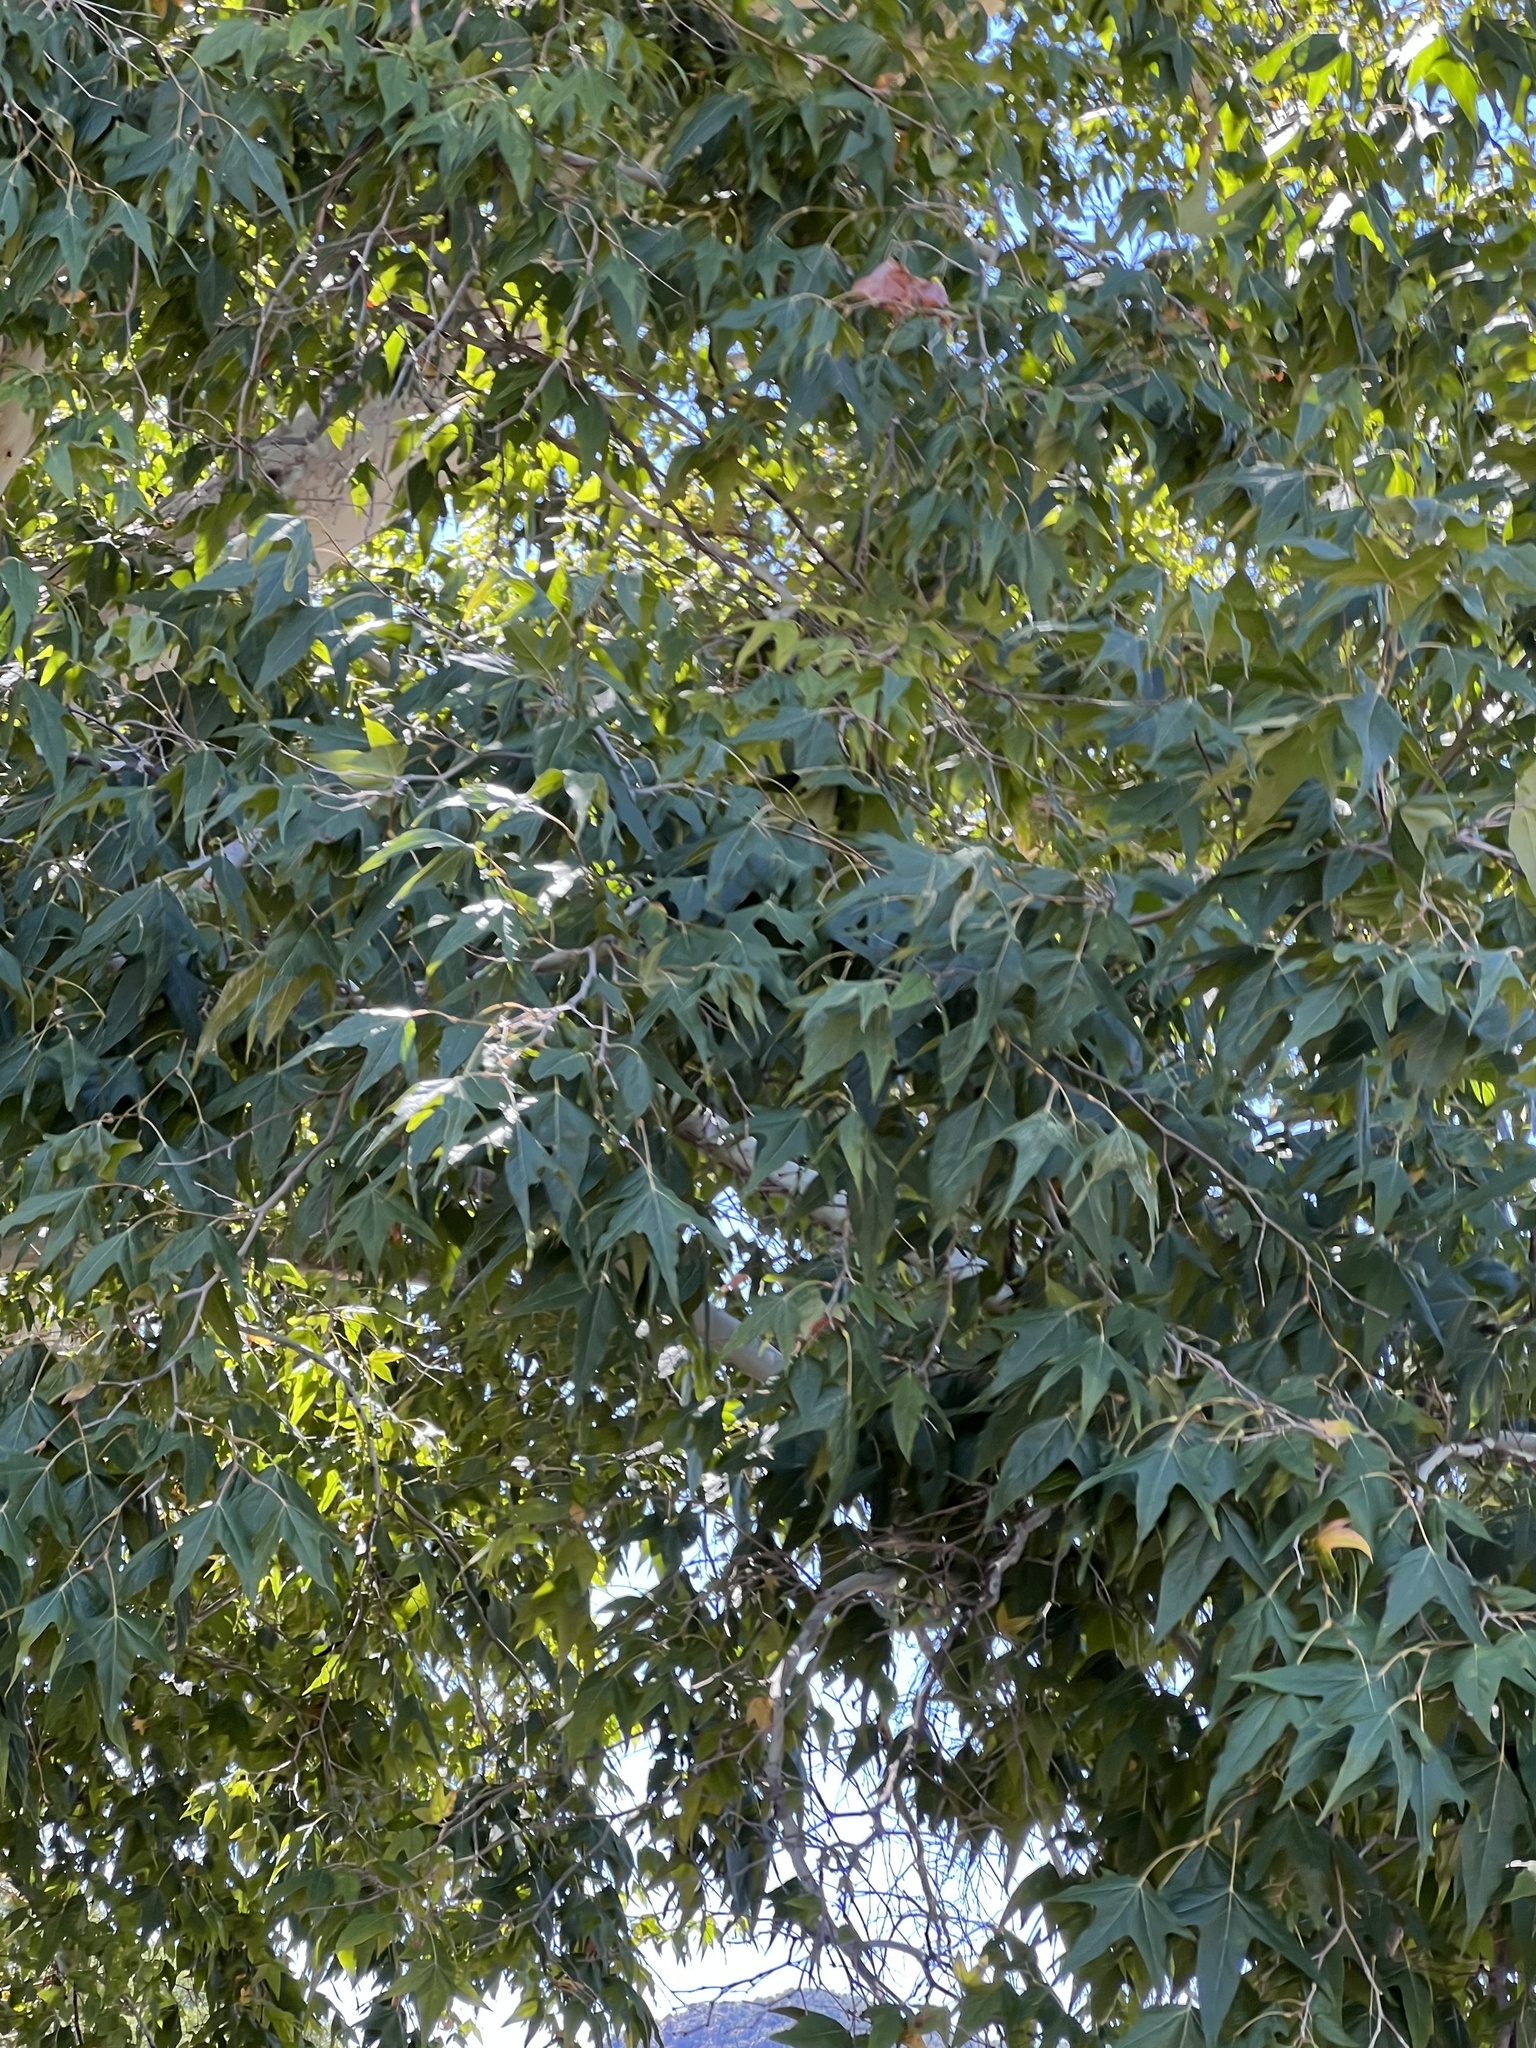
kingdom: Plantae
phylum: Tracheophyta
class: Magnoliopsida
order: Proteales
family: Platanaceae
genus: Platanus
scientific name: Platanus wrightii
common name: Arizona sycamore
